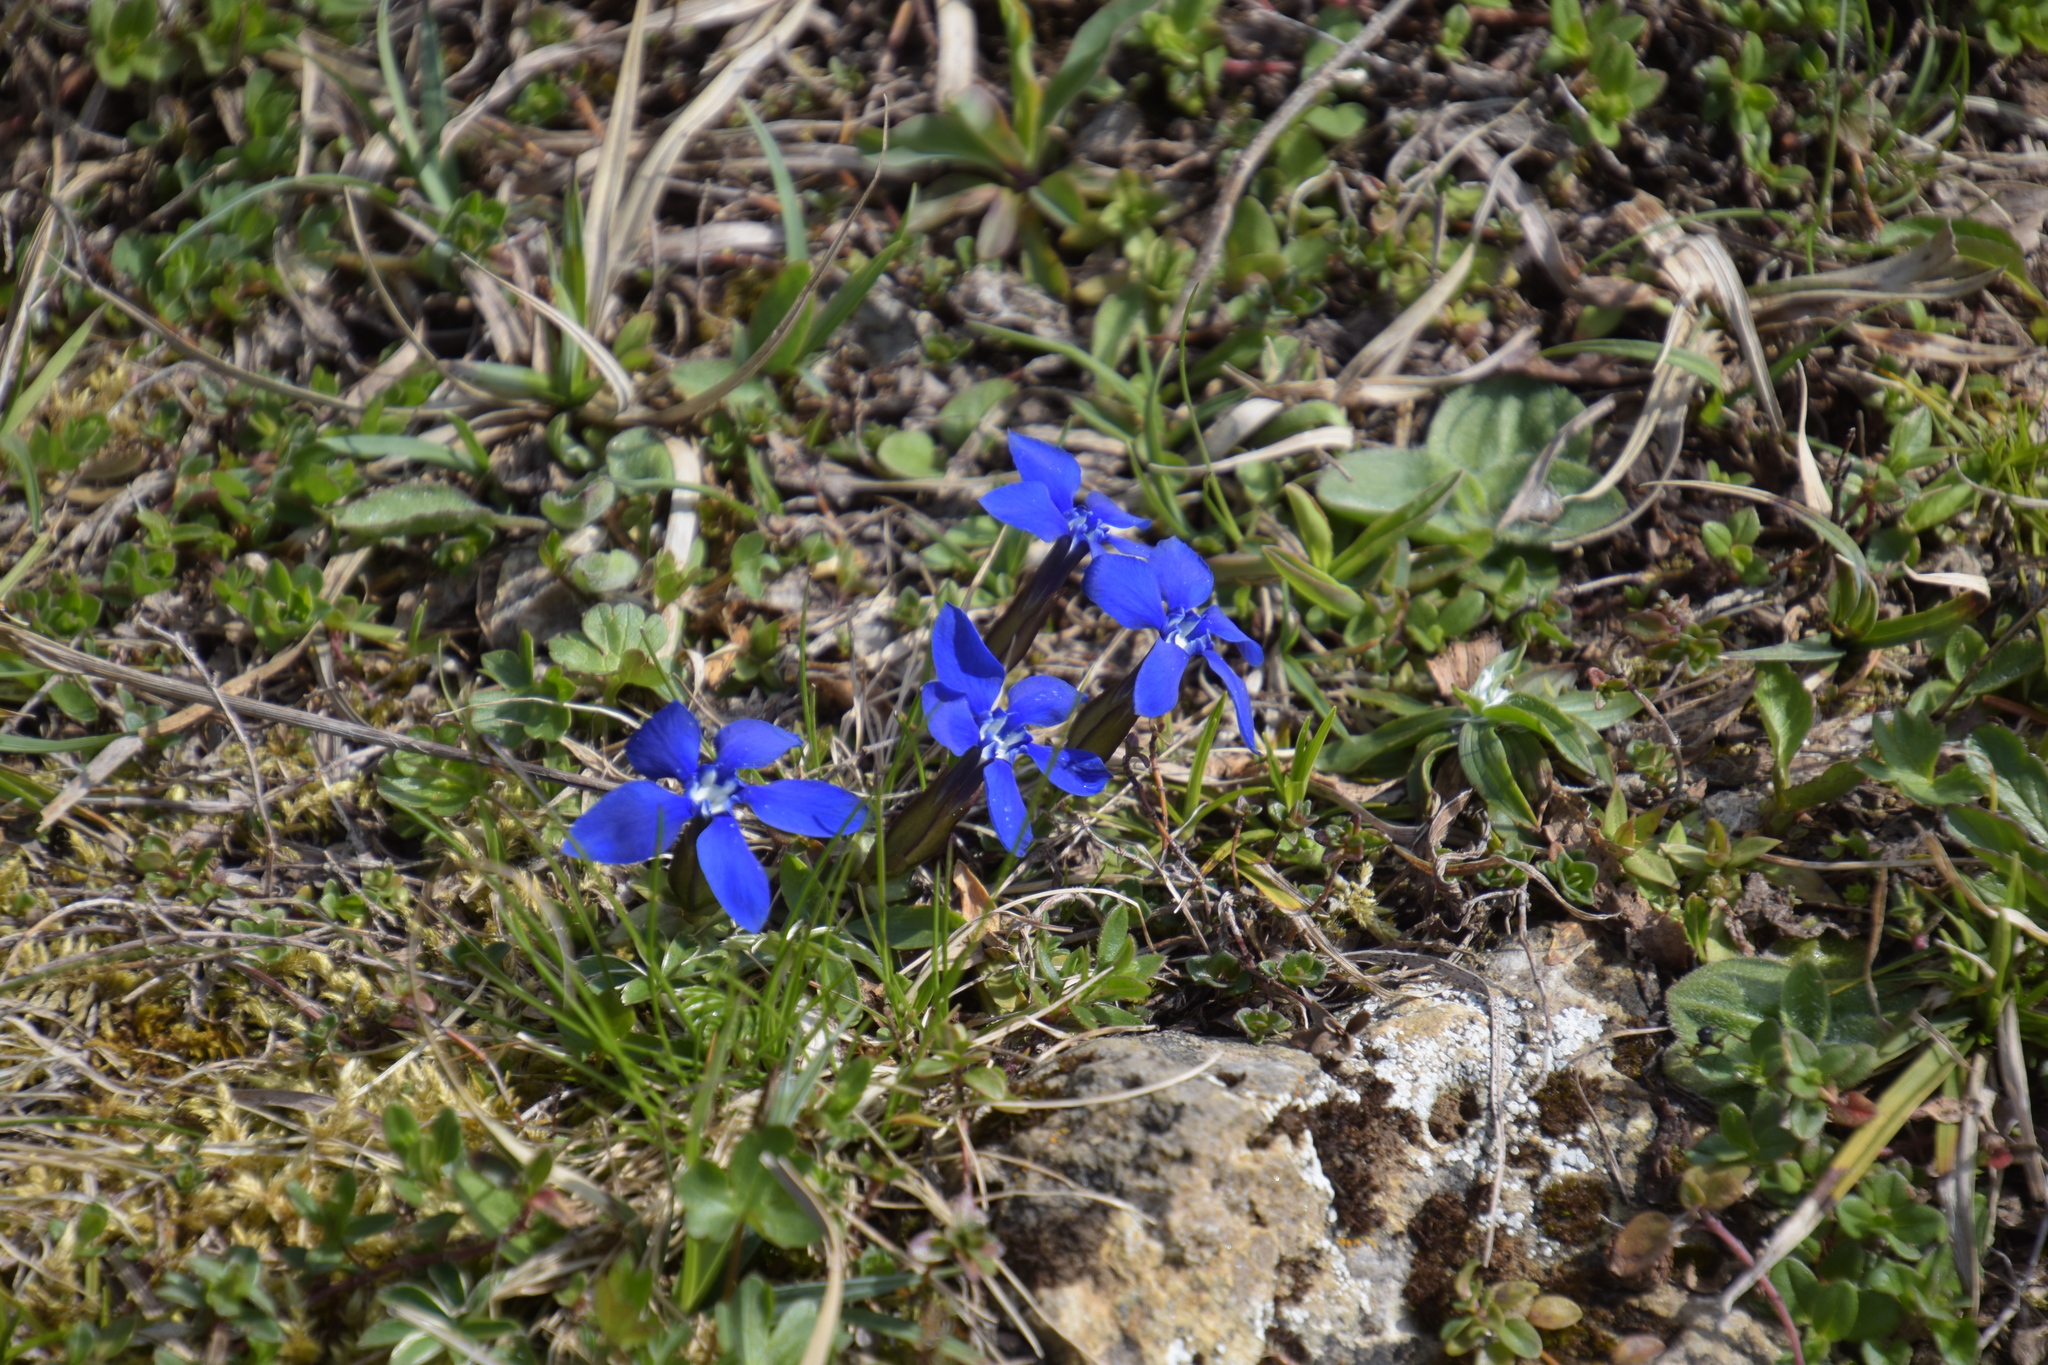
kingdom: Plantae
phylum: Tracheophyta
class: Magnoliopsida
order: Gentianales
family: Gentianaceae
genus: Gentiana
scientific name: Gentiana verna
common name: Spring gentian
